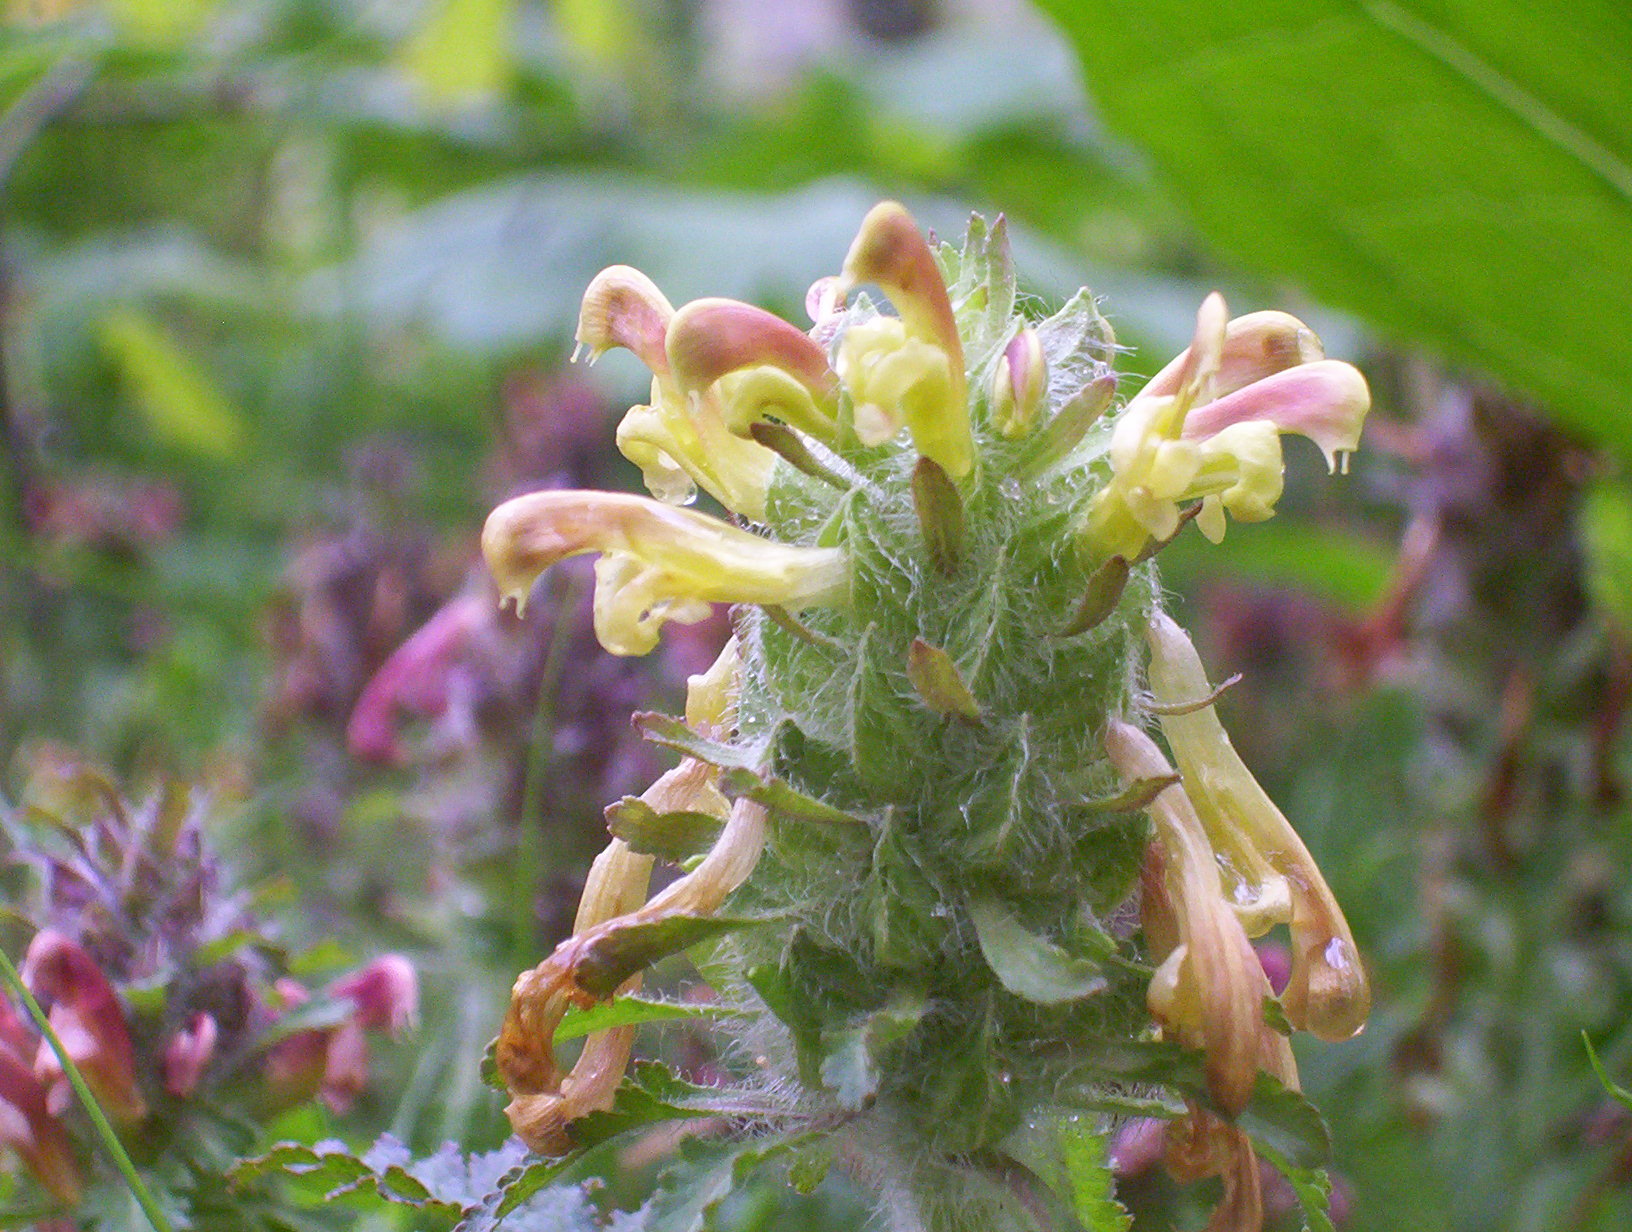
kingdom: Plantae
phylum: Tracheophyta
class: Magnoliopsida
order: Lamiales
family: Orobanchaceae
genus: Pedicularis
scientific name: Pedicularis canadensis
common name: Early lousewort
